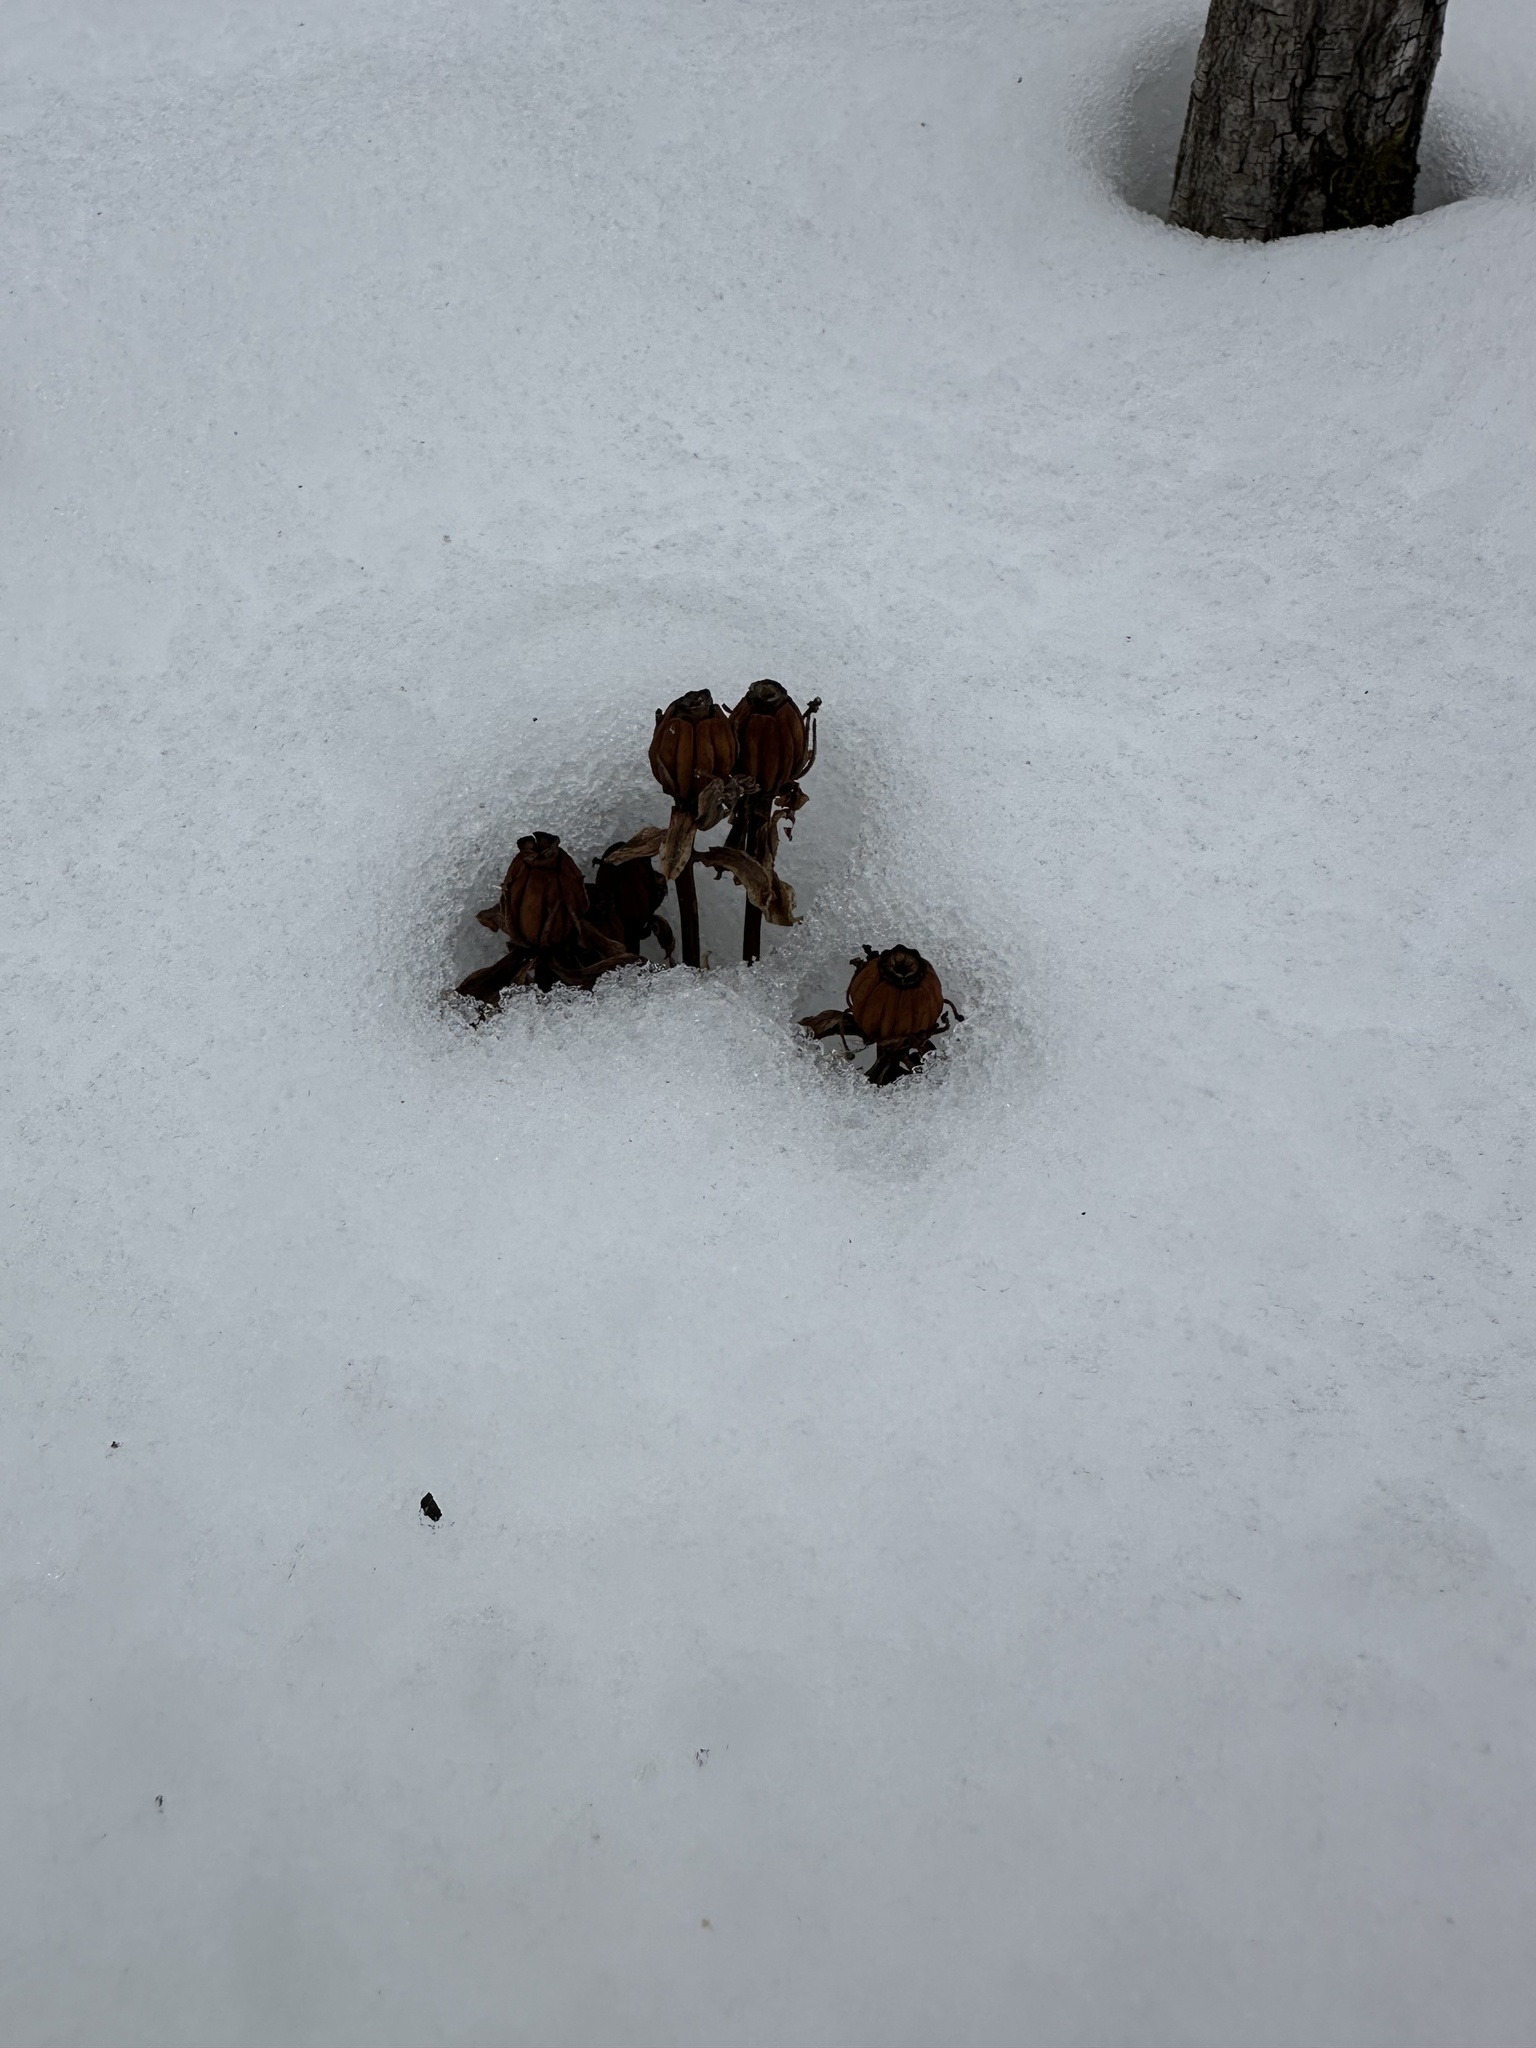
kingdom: Plantae
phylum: Tracheophyta
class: Magnoliopsida
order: Ericales
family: Ericaceae
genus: Monotropa
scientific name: Monotropa uniflora
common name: Convulsion root
